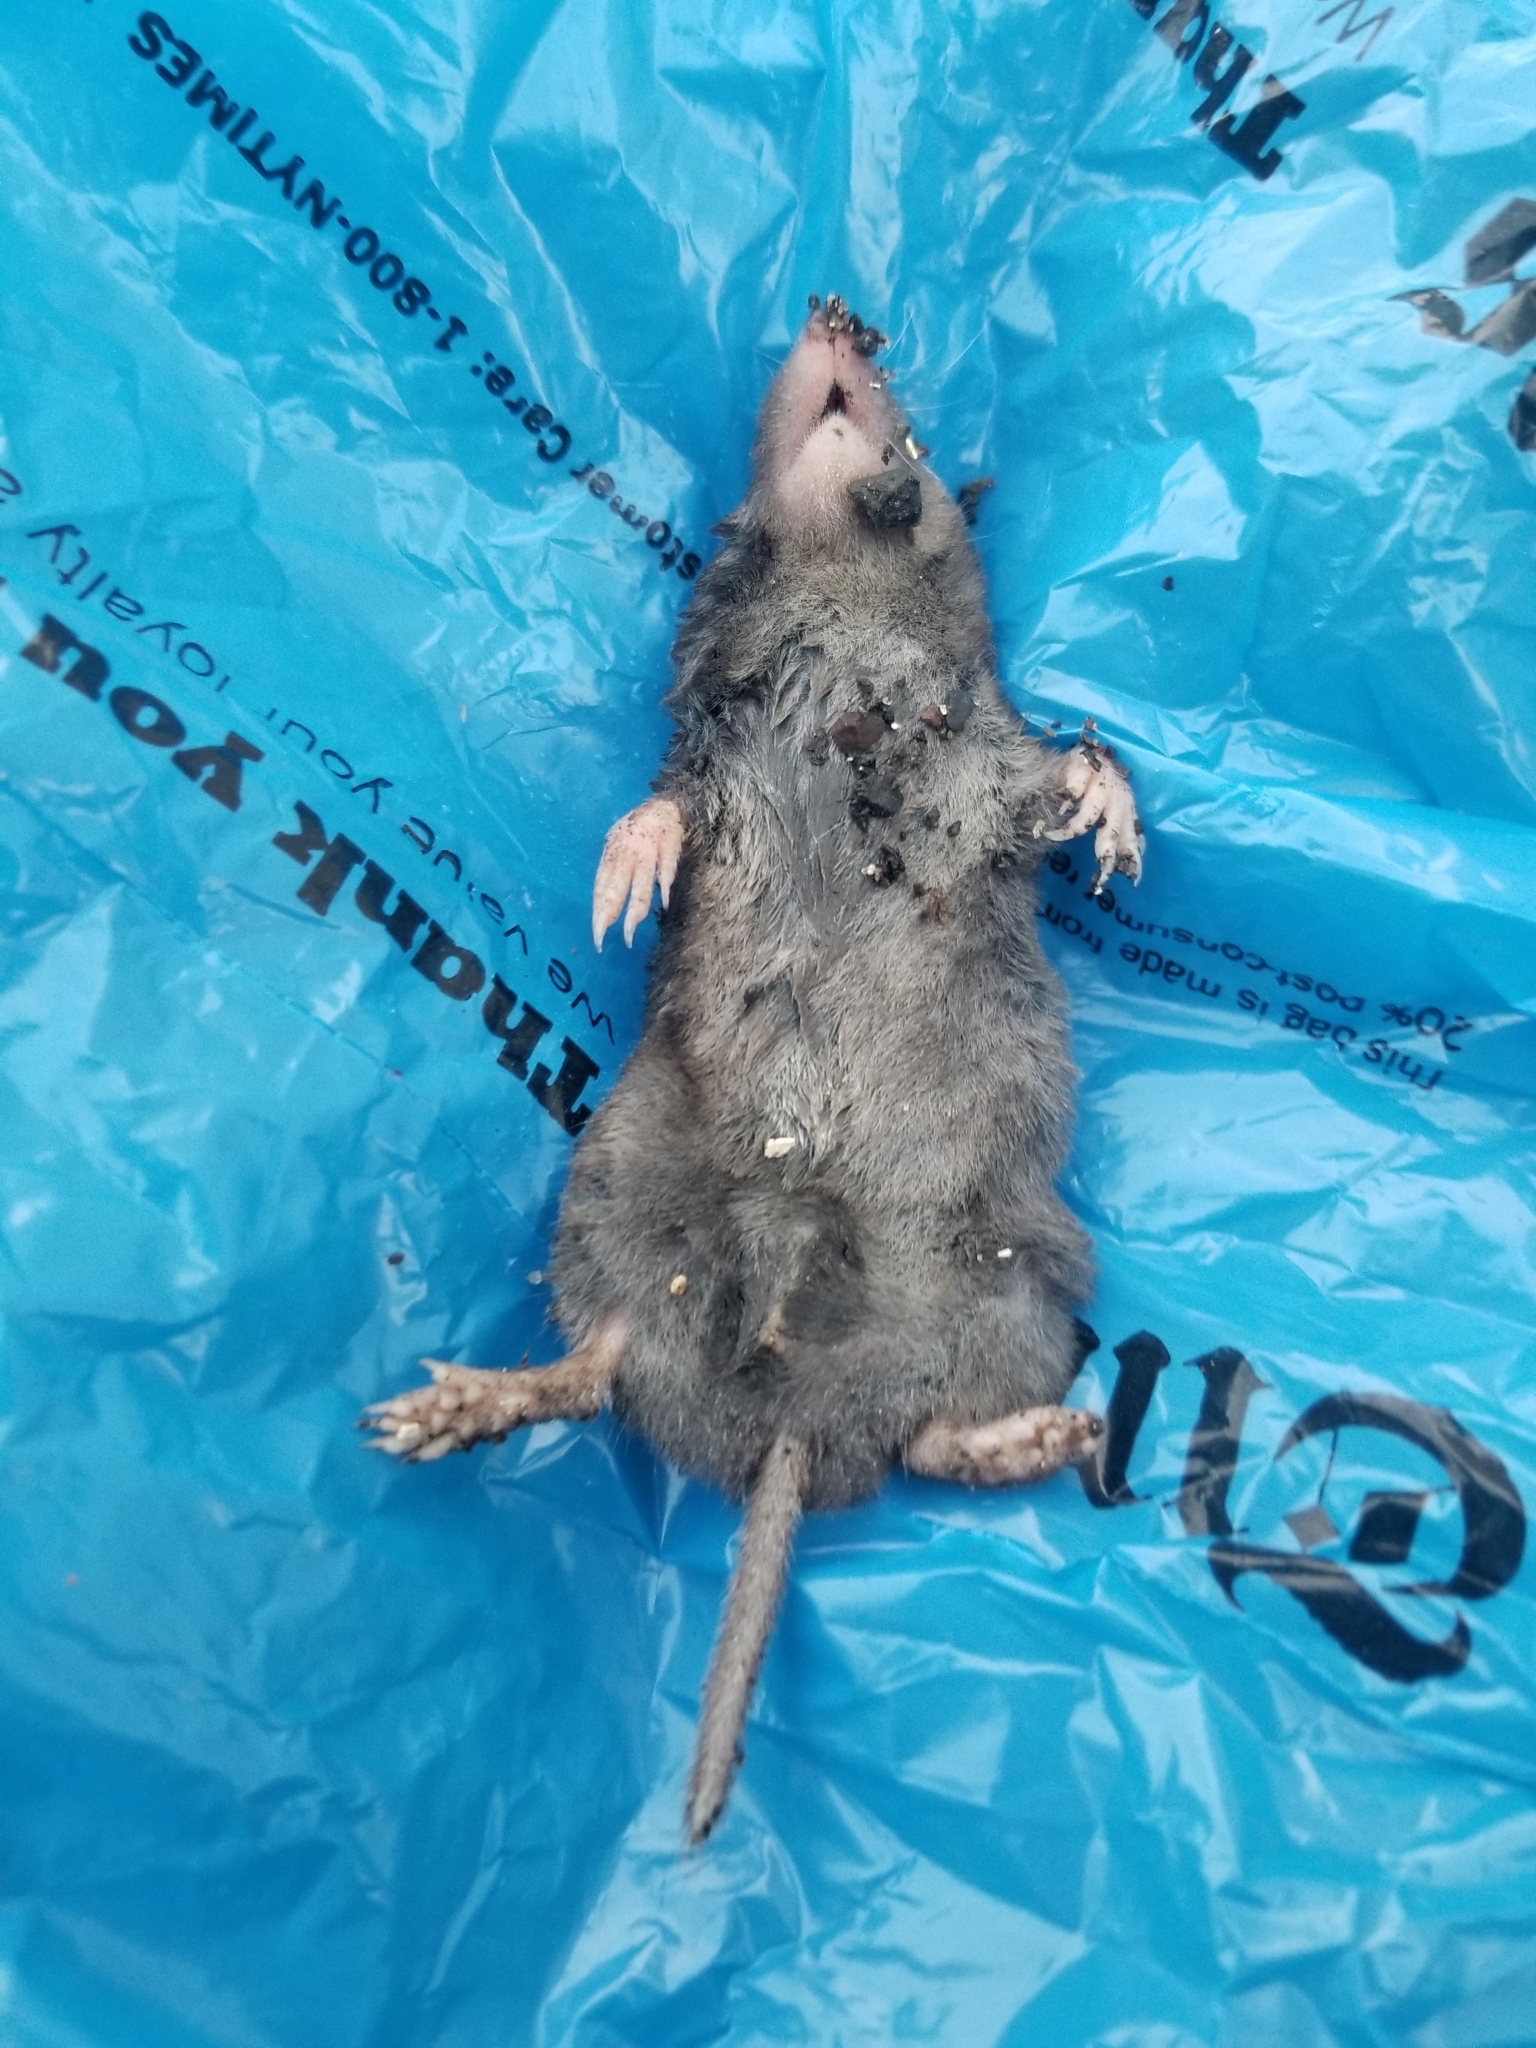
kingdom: Animalia
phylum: Chordata
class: Mammalia
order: Soricomorpha
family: Soricidae
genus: Blarina
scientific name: Blarina brevicauda
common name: Northern short-tailed shrew
